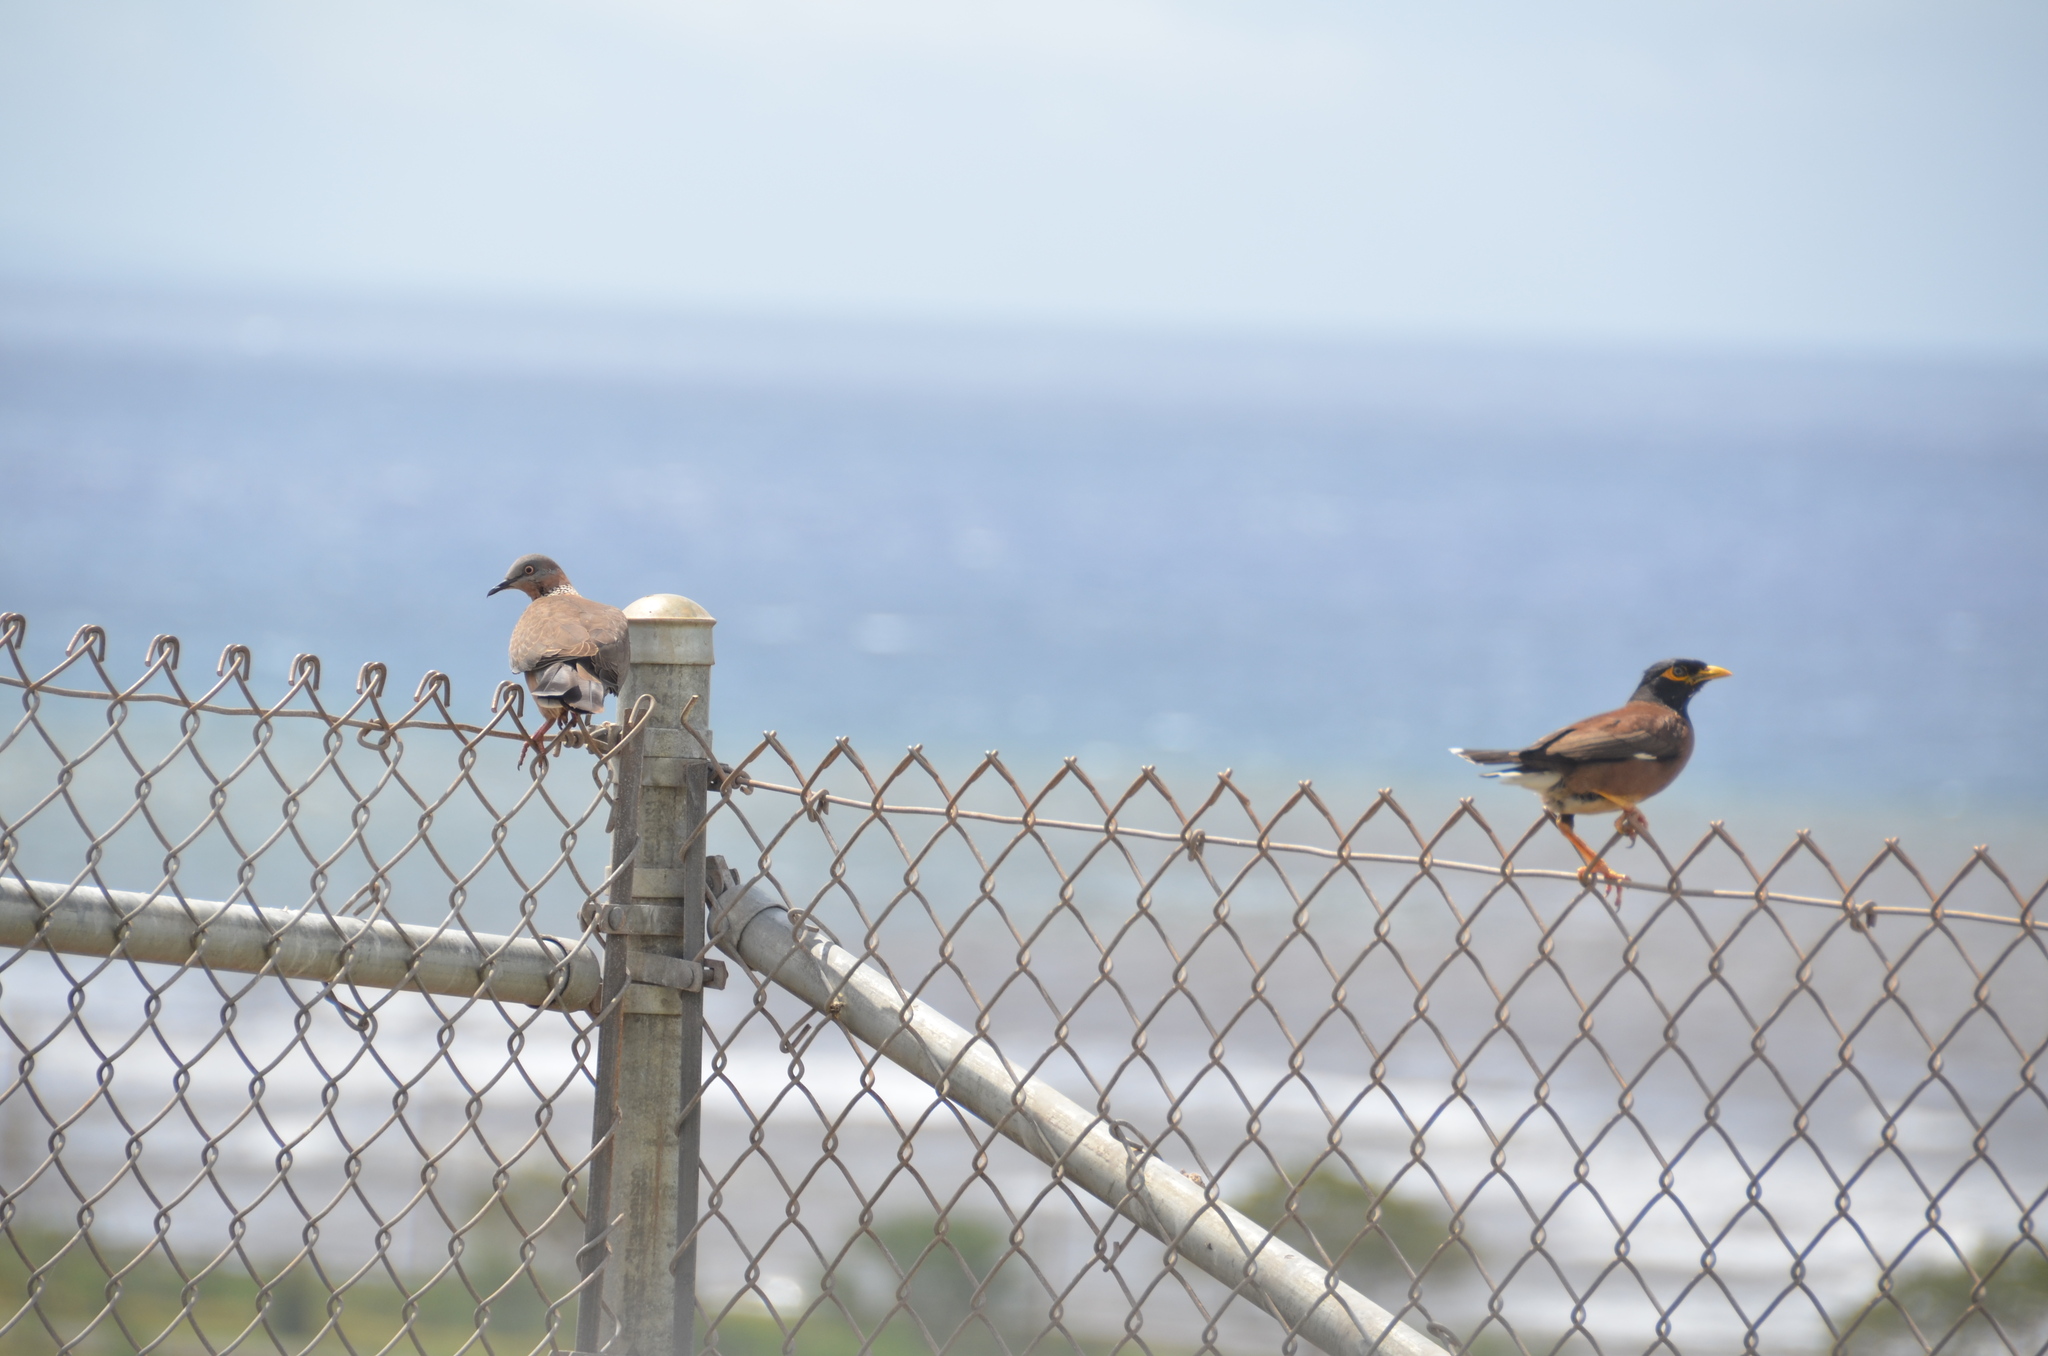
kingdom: Animalia
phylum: Chordata
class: Aves
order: Columbiformes
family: Columbidae
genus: Spilopelia
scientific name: Spilopelia chinensis
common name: Spotted dove
